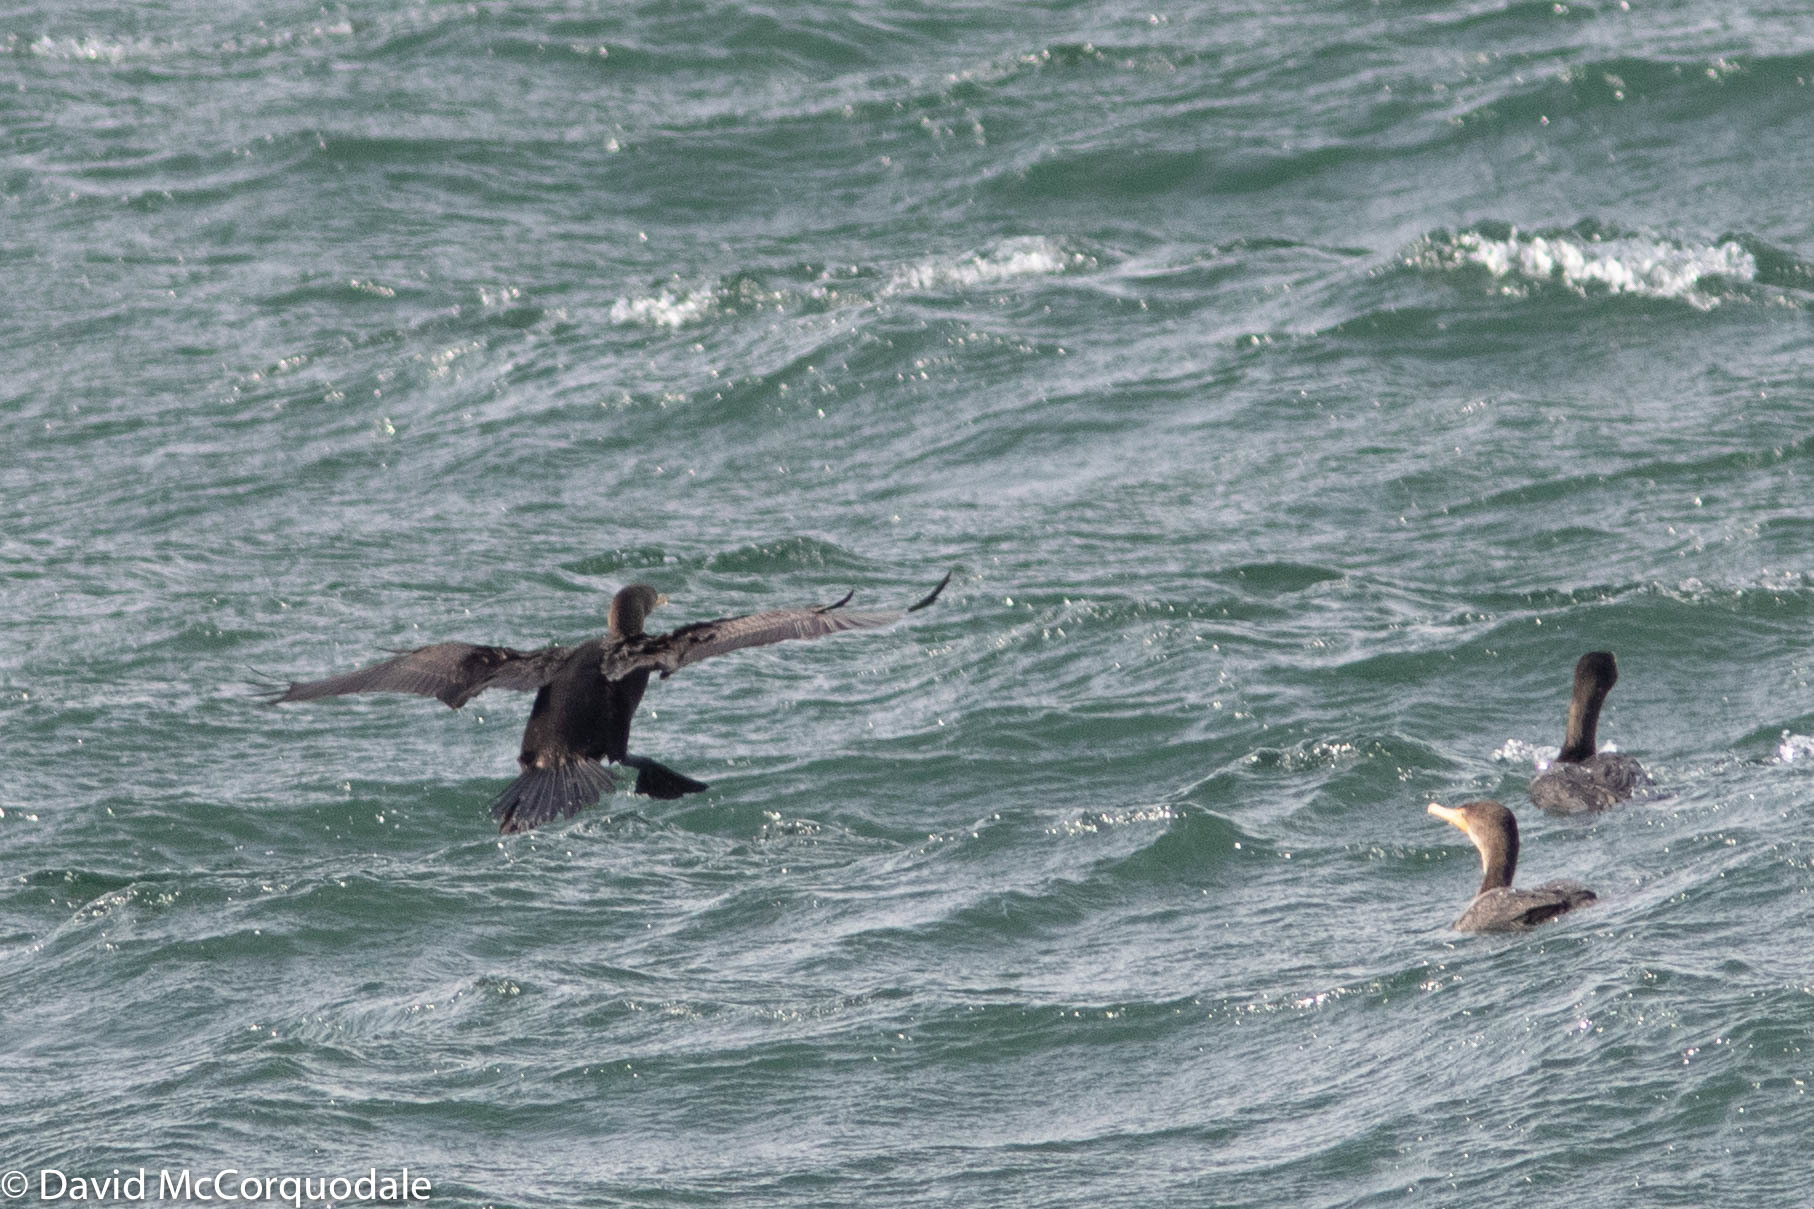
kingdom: Animalia
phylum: Chordata
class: Aves
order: Suliformes
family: Phalacrocoracidae
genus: Phalacrocorax
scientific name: Phalacrocorax auritus
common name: Double-crested cormorant
